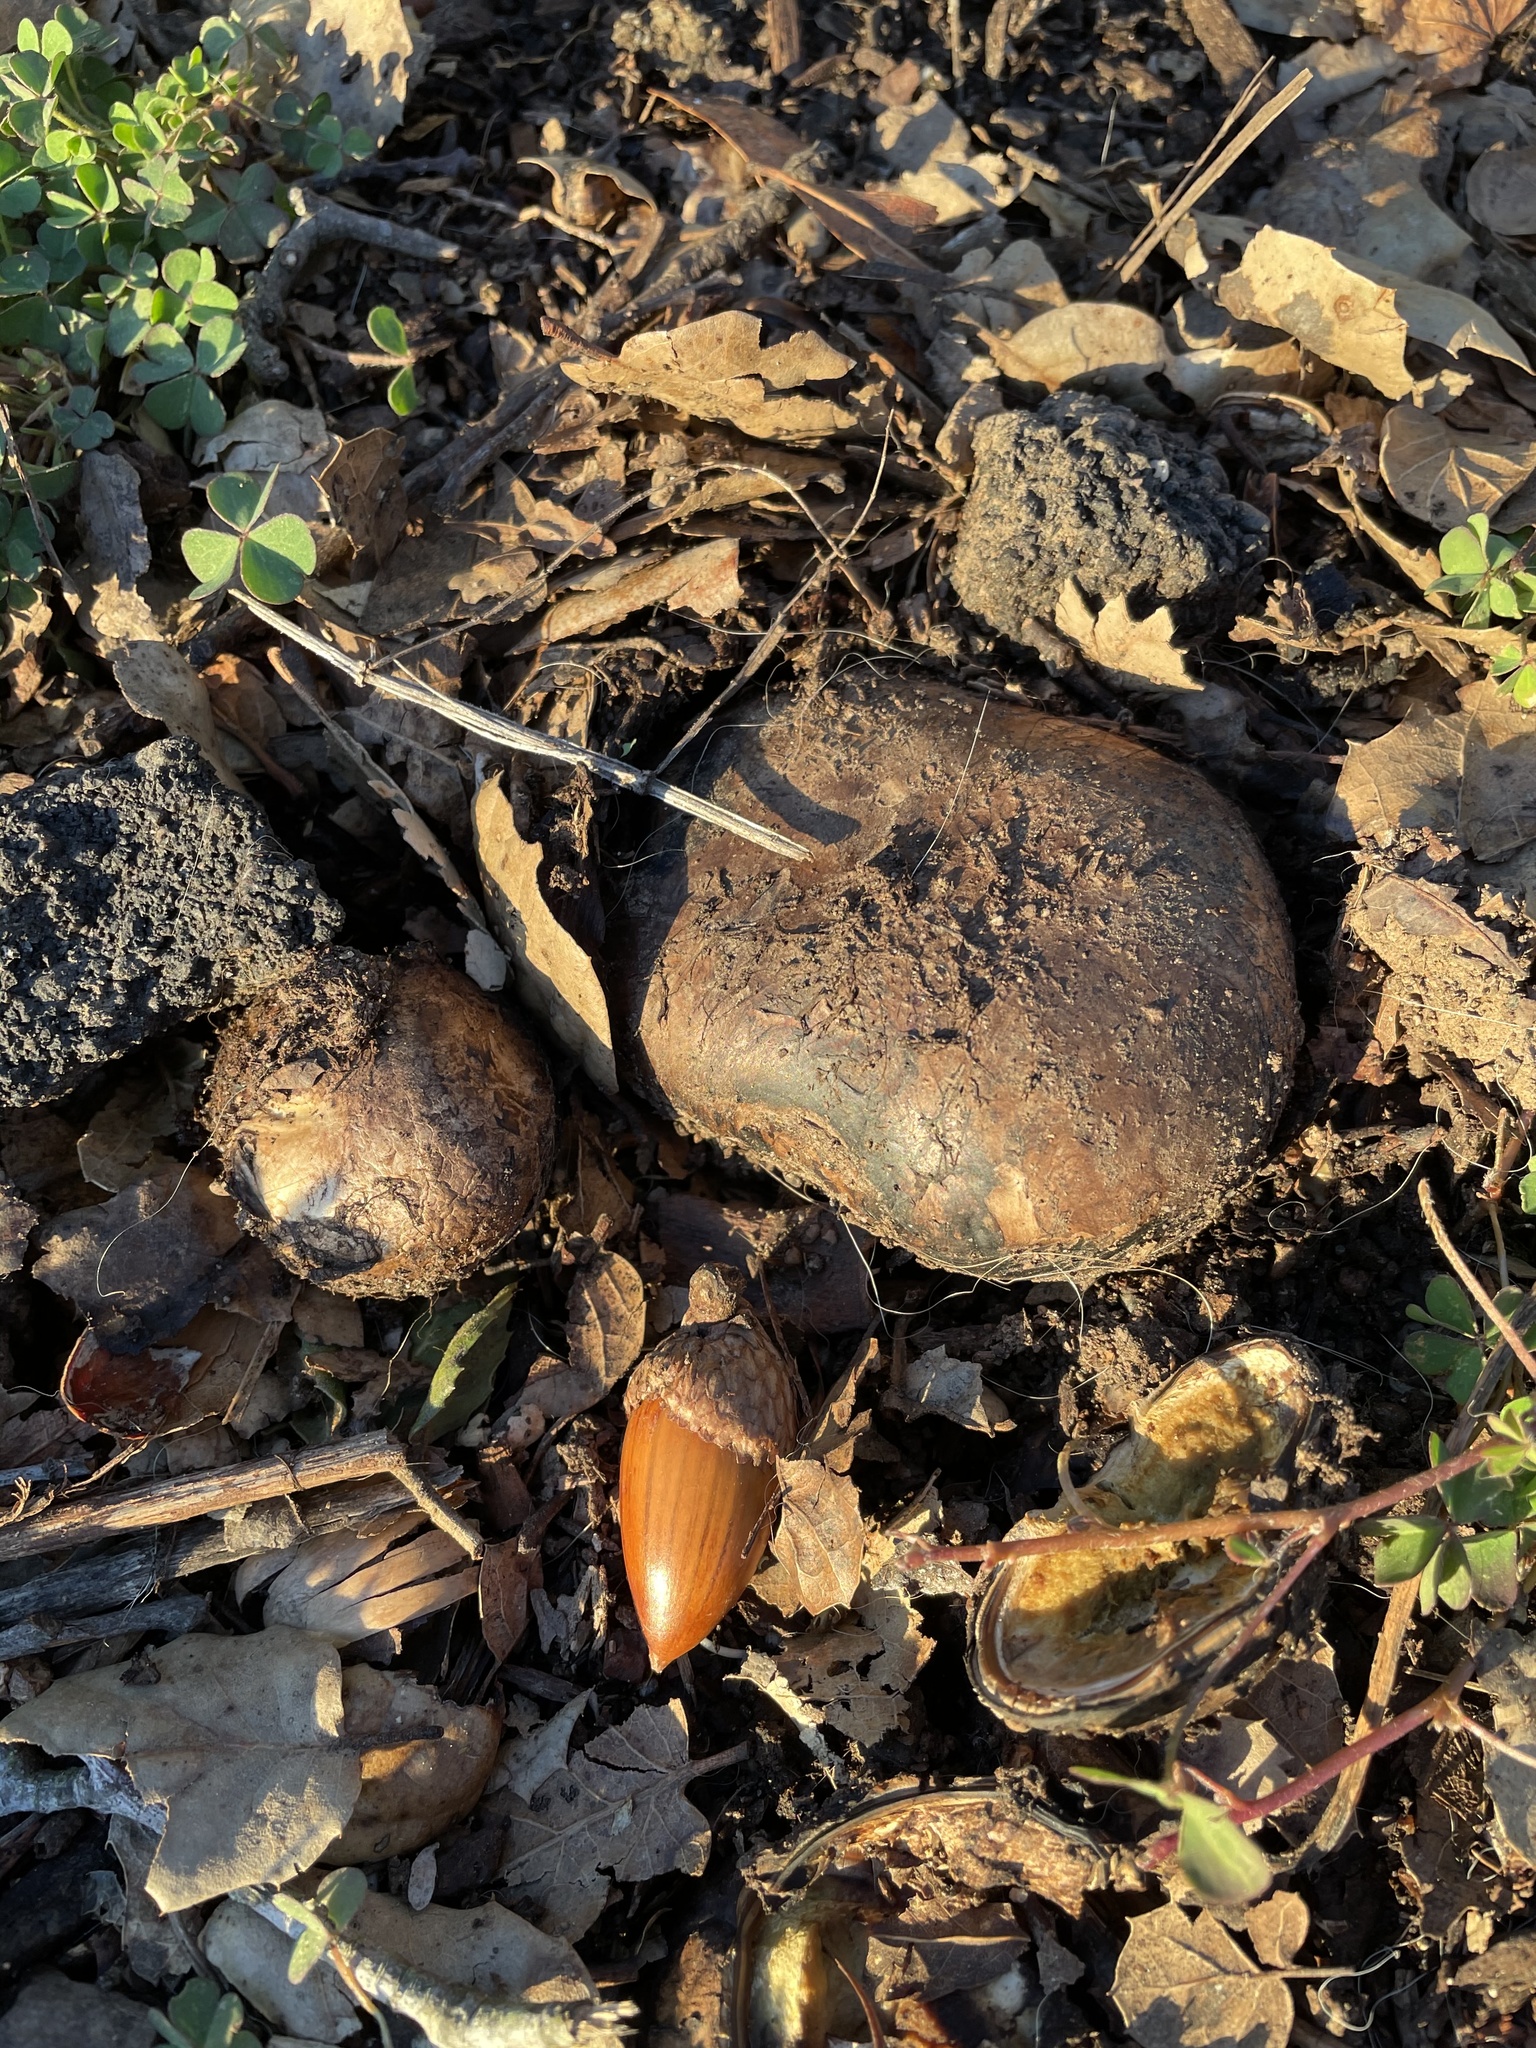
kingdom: Fungi
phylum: Basidiomycota
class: Agaricomycetes
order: Geastrales
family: Geastraceae
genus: Geastrum
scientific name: Geastrum fuscoglebum
